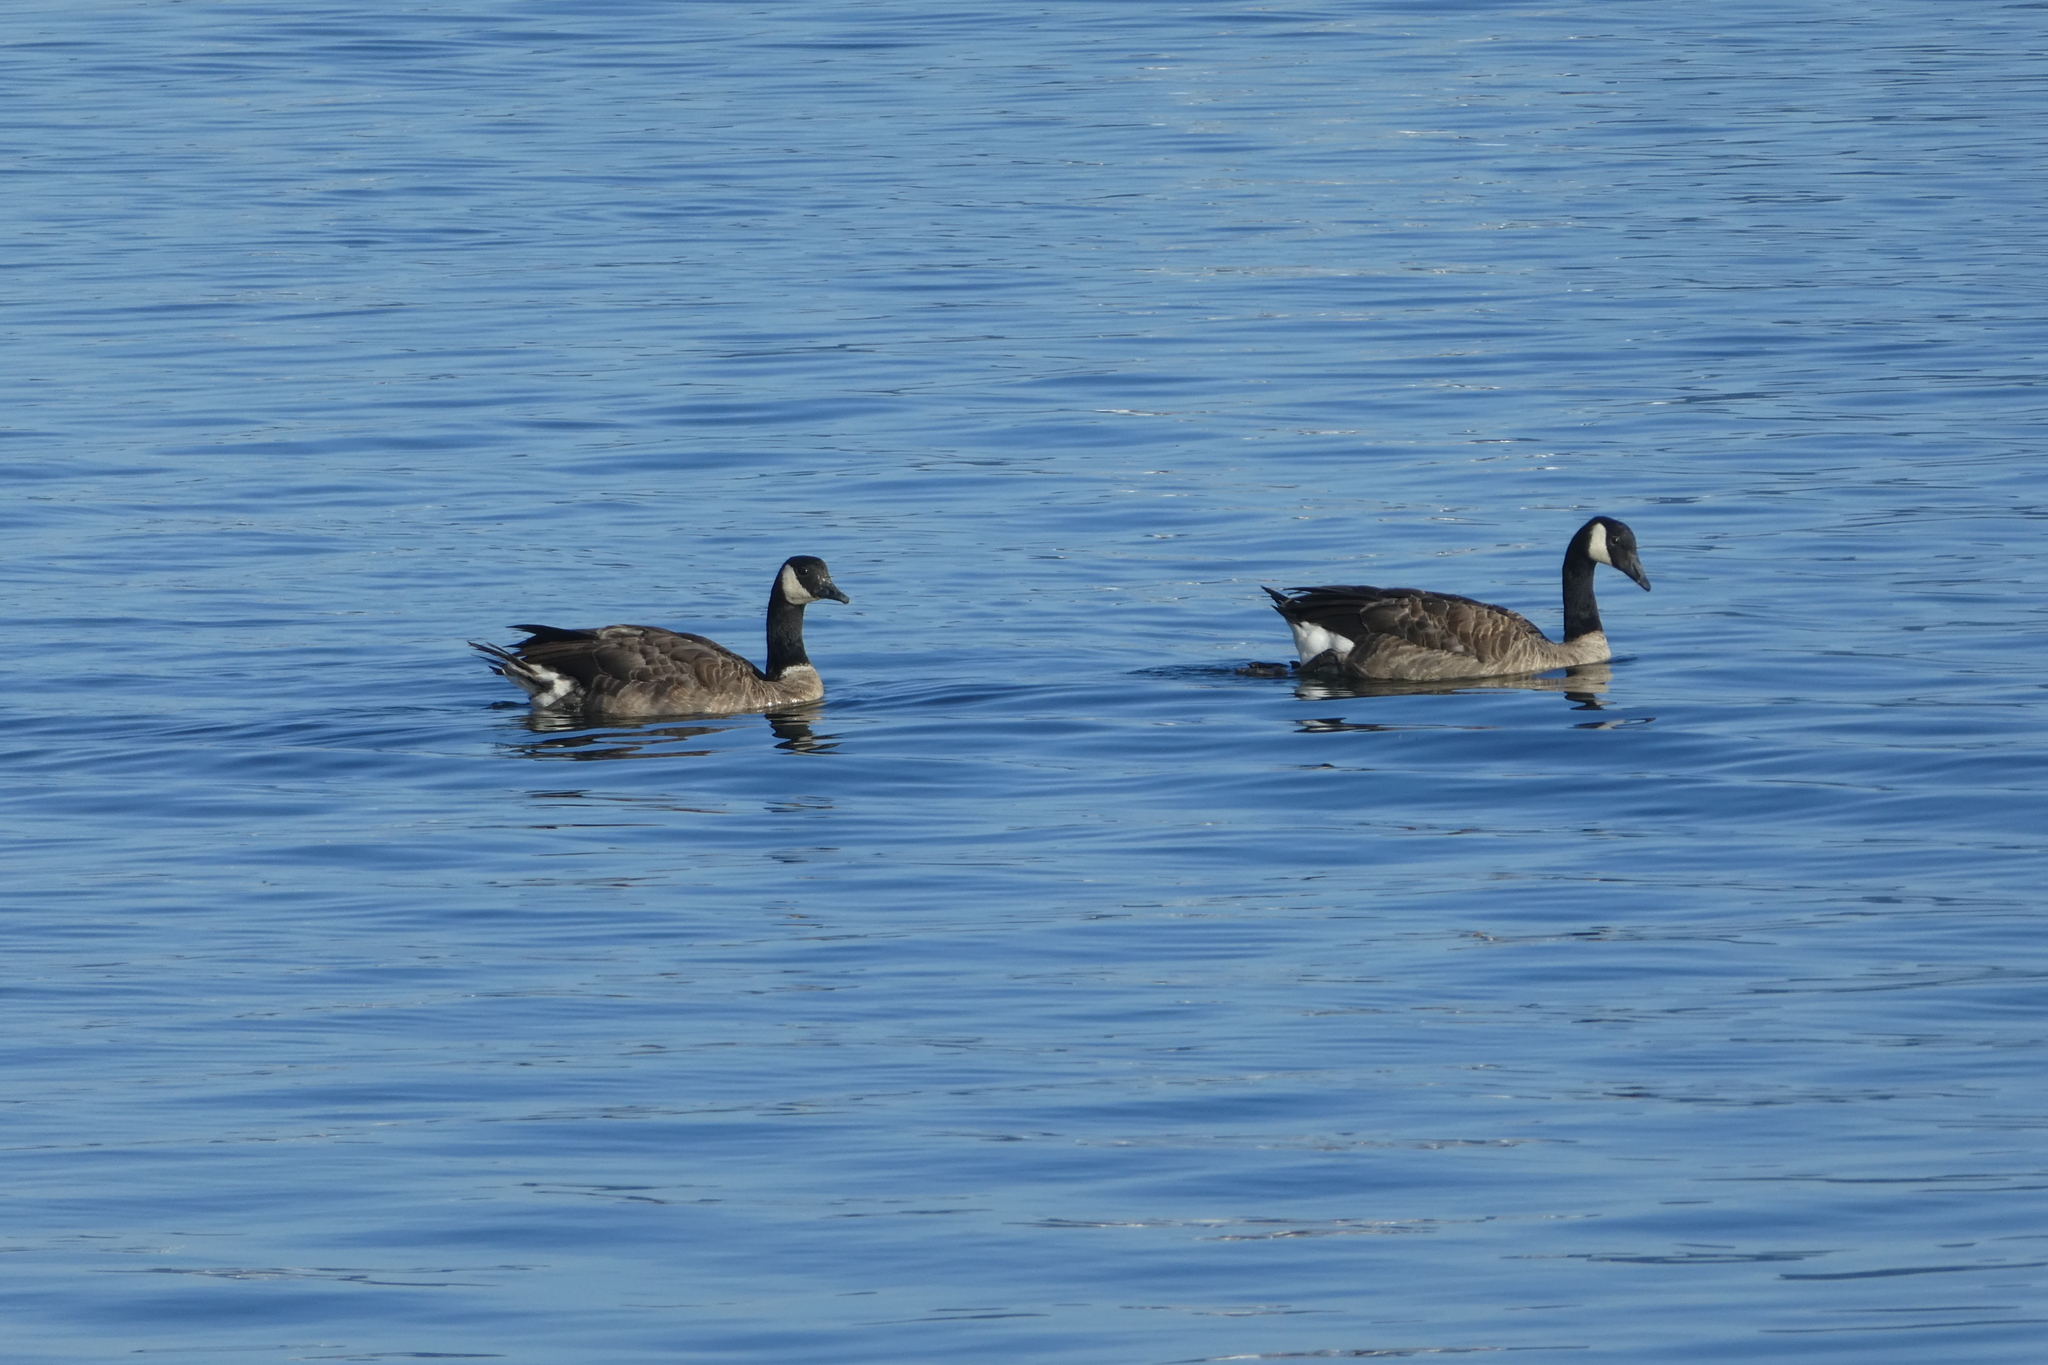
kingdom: Animalia
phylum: Chordata
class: Aves
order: Anseriformes
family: Anatidae
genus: Branta
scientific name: Branta canadensis
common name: Canada goose
